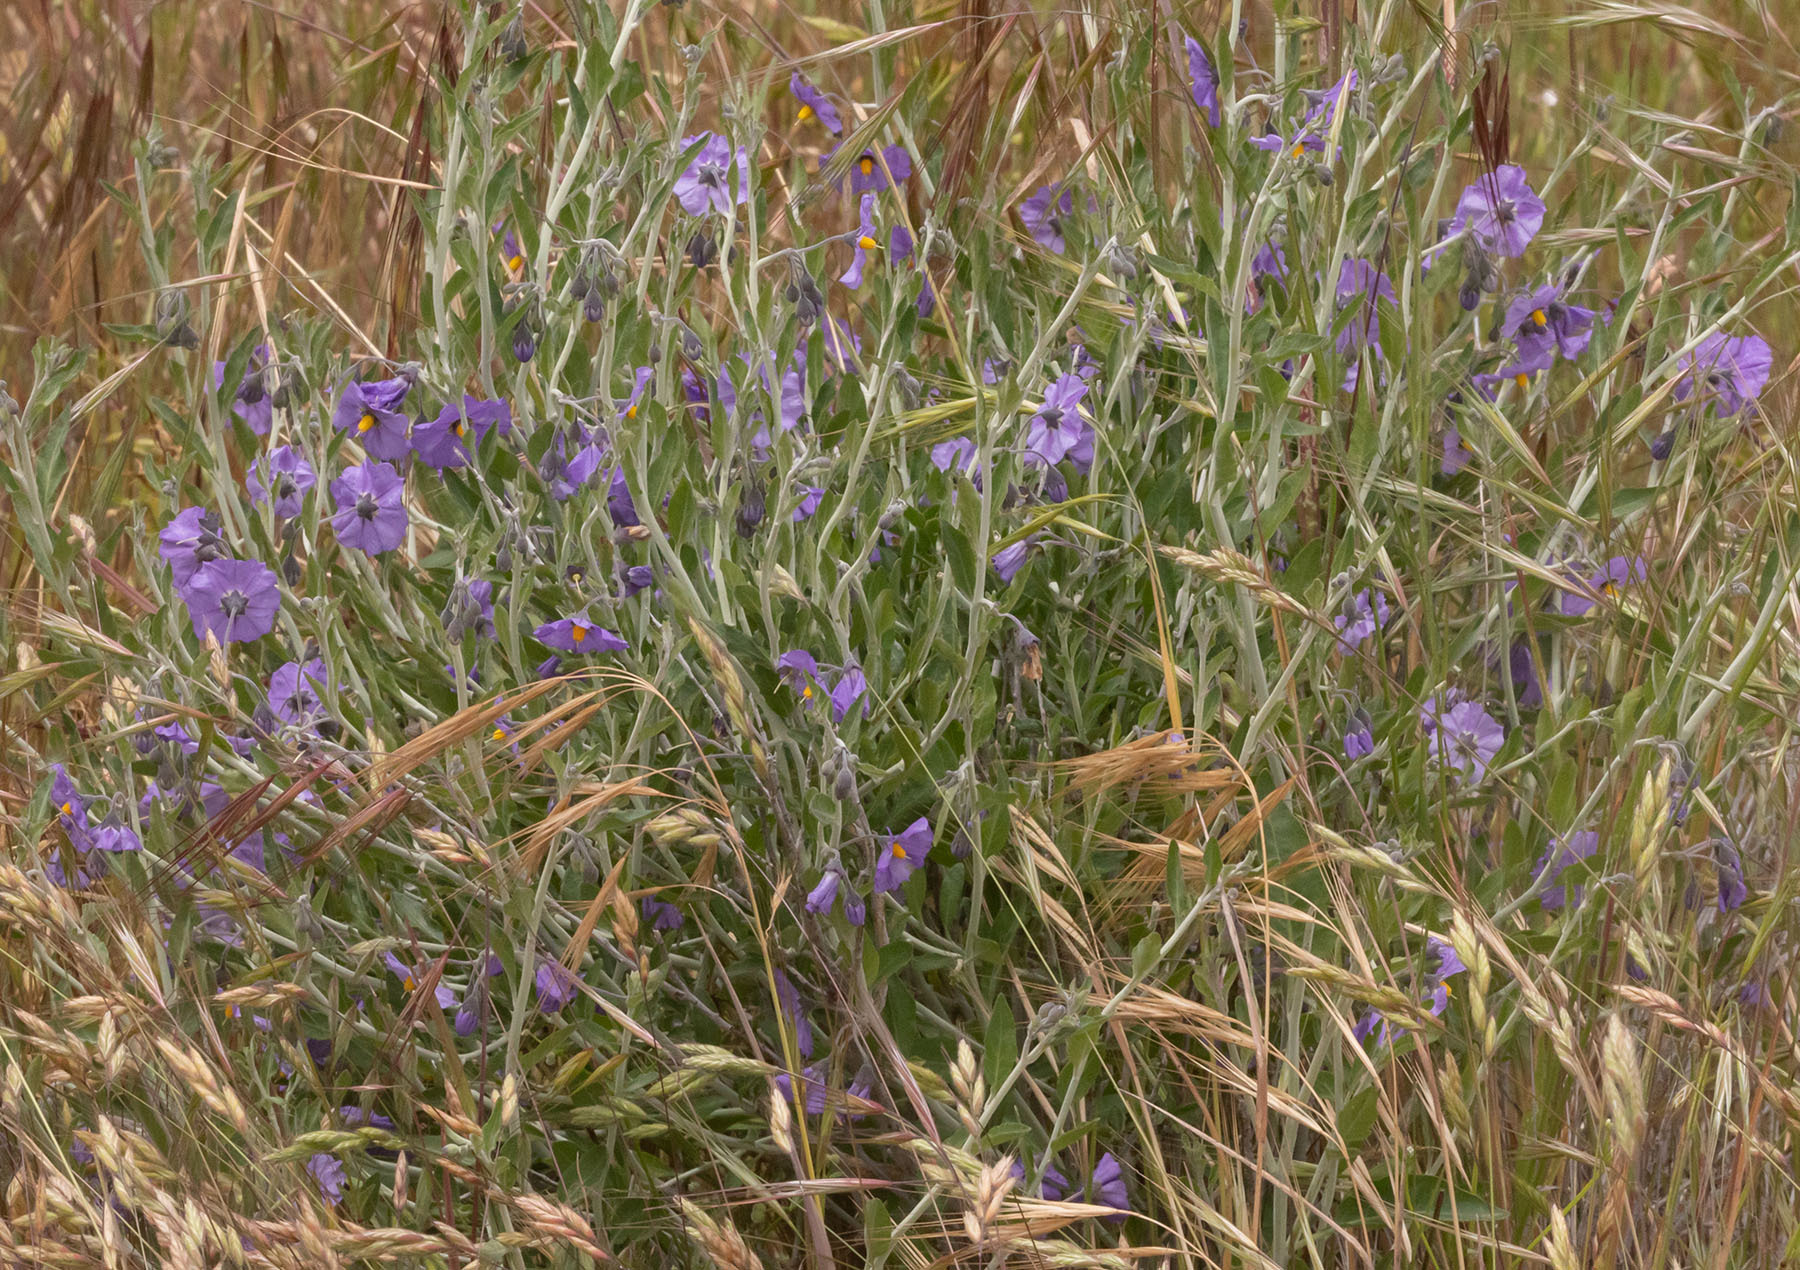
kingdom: Plantae
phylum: Tracheophyta
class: Magnoliopsida
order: Solanales
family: Solanaceae
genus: Solanum
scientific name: Solanum umbelliferum
